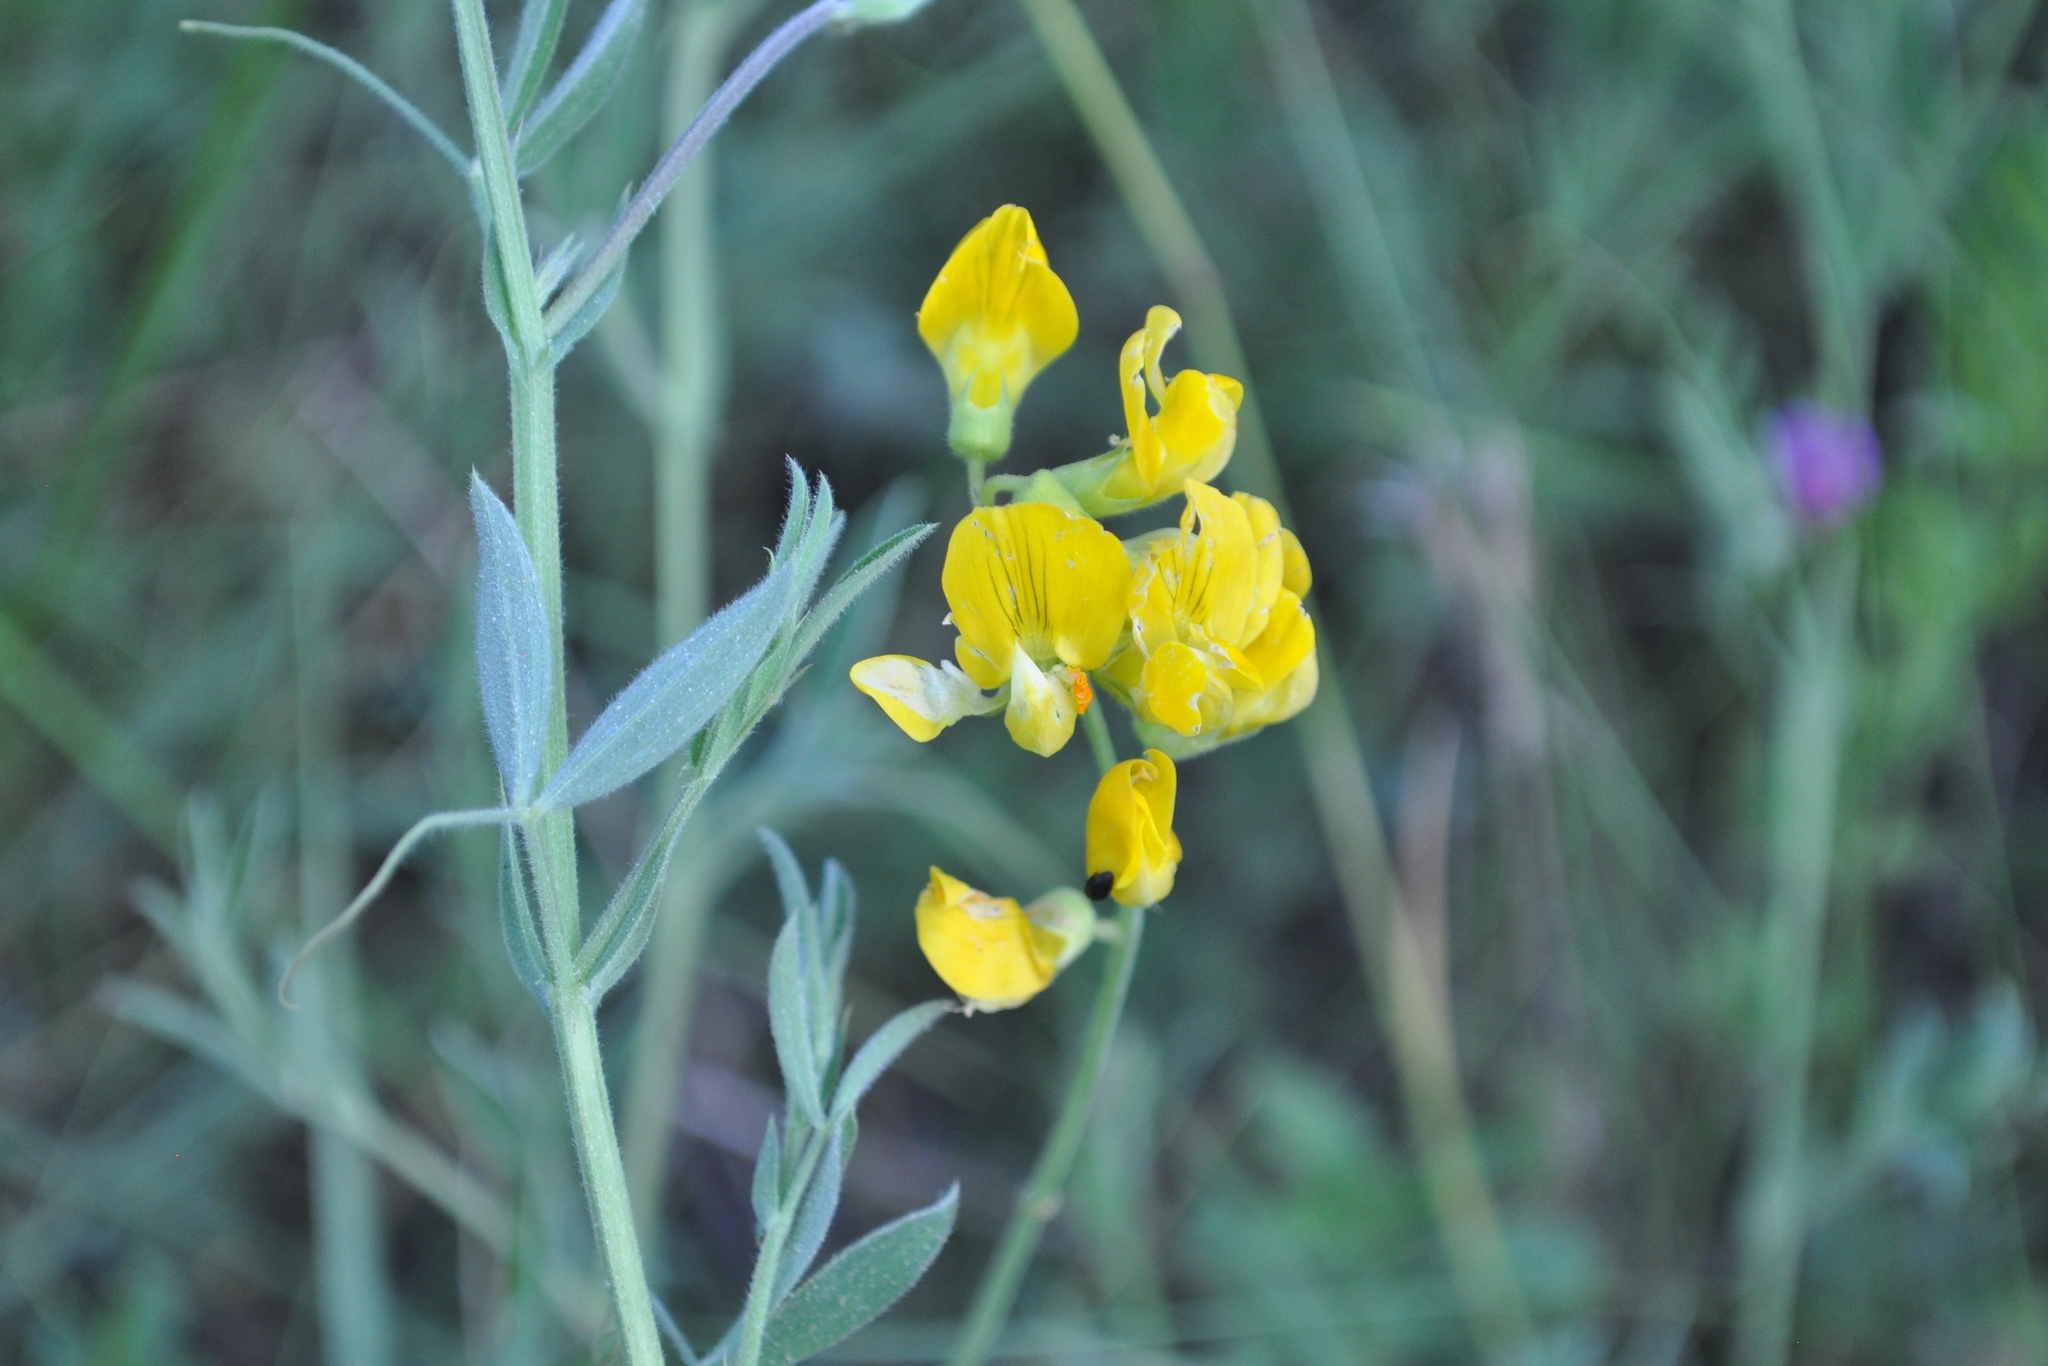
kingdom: Plantae
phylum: Tracheophyta
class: Magnoliopsida
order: Fabales
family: Fabaceae
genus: Lathyrus
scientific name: Lathyrus pratensis
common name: Meadow vetchling
